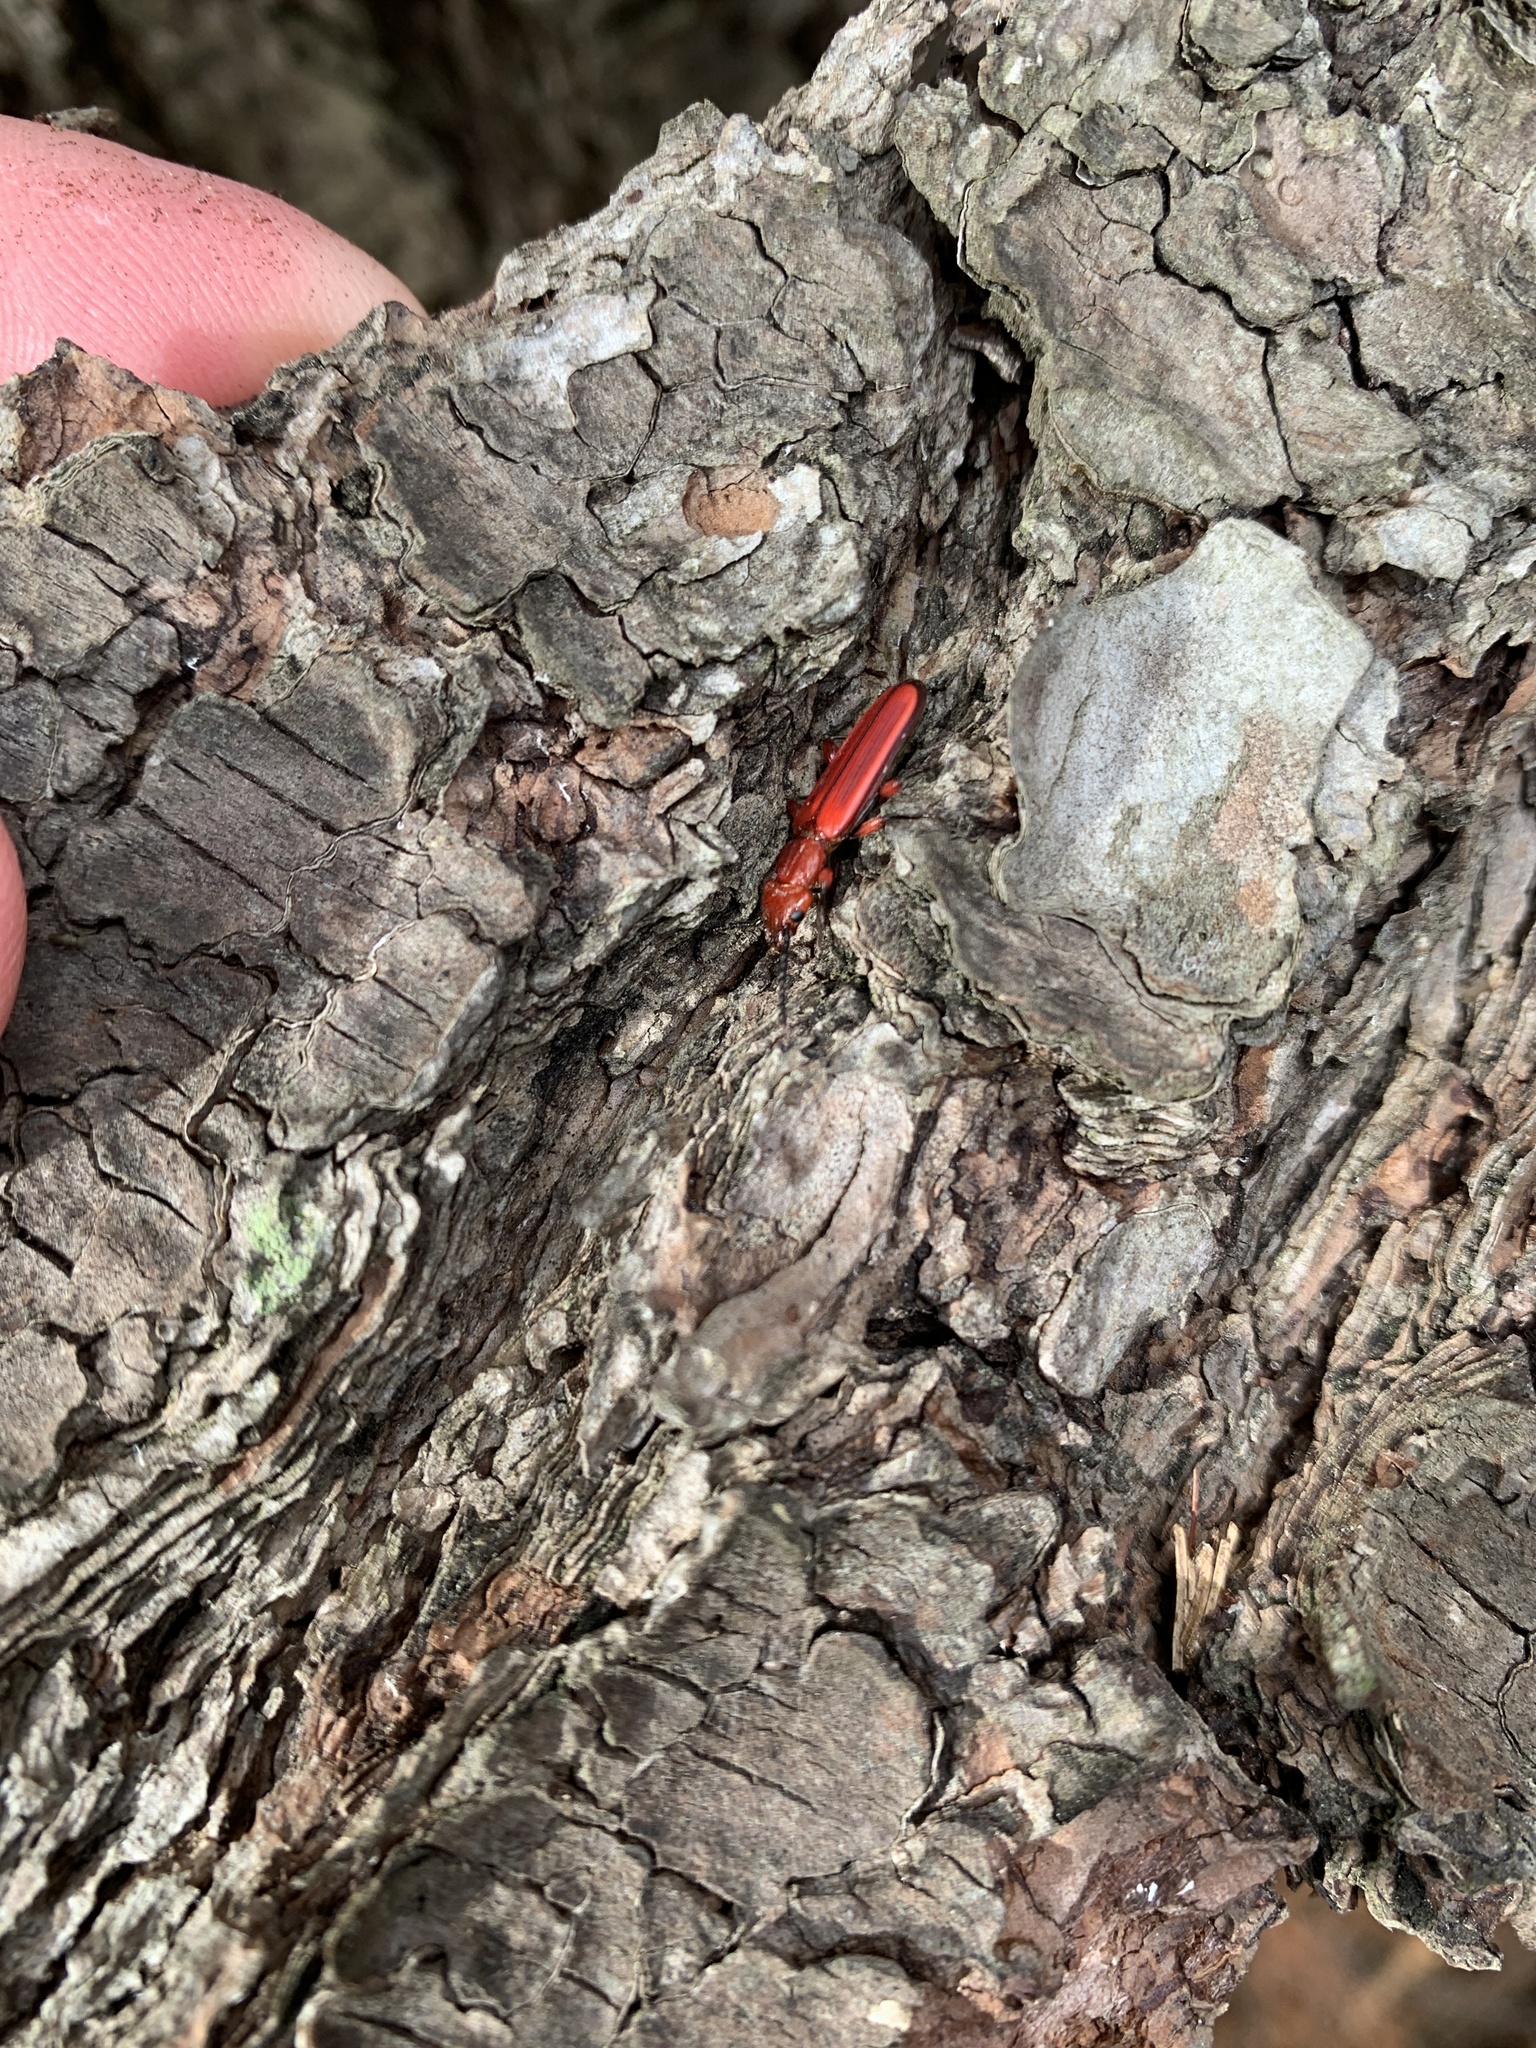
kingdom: Animalia
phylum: Arthropoda
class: Insecta
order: Coleoptera
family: Cucujidae
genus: Cucujus
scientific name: Cucujus clavipes
